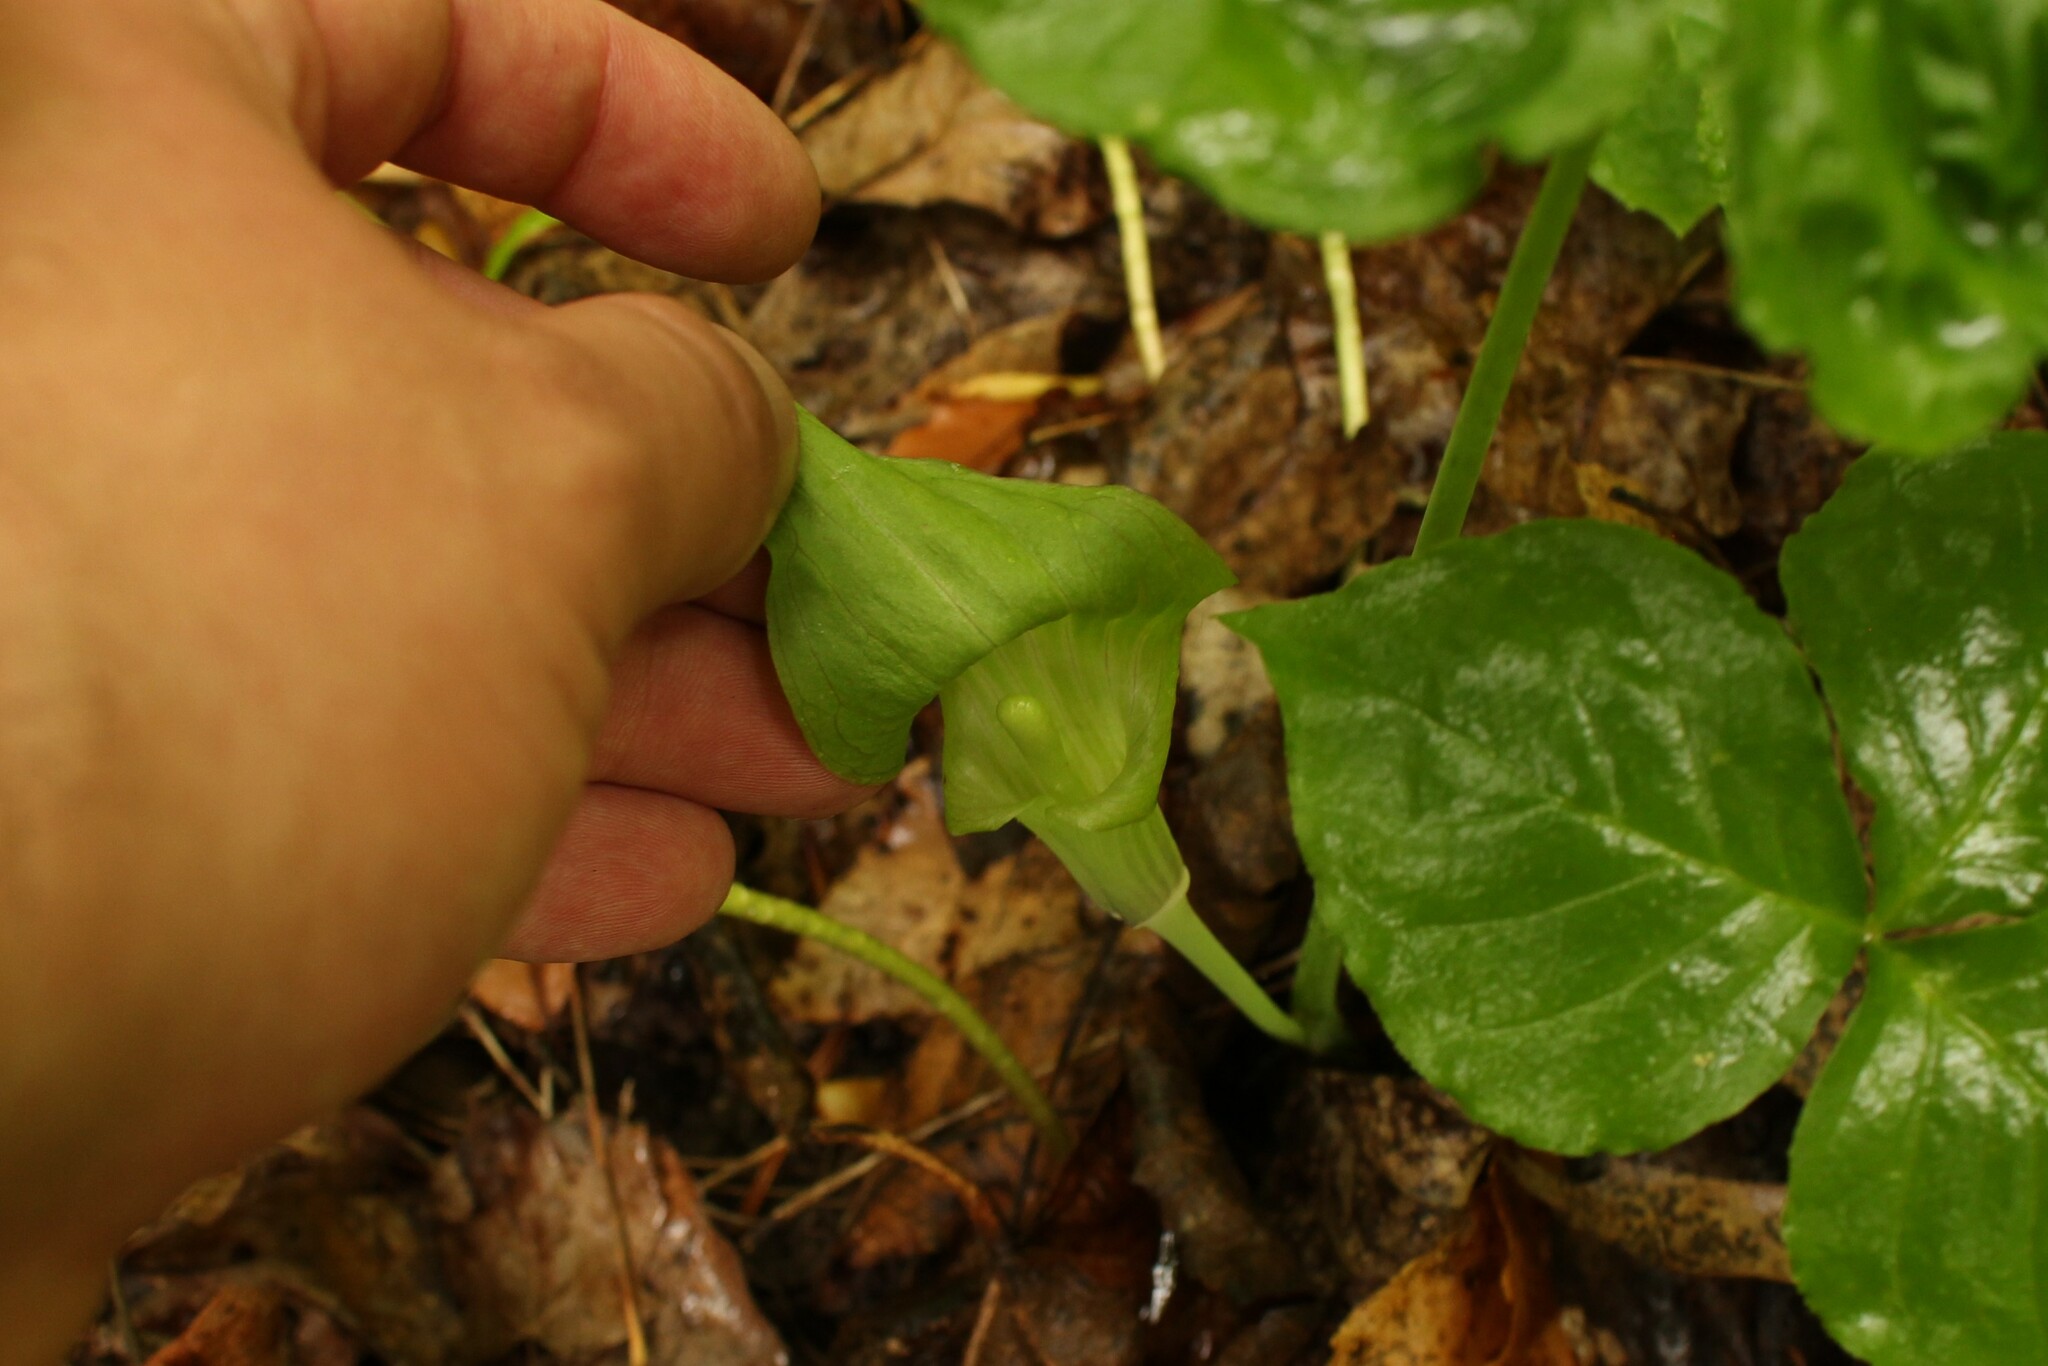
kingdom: Plantae
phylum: Tracheophyta
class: Liliopsida
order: Alismatales
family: Araceae
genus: Arisaema
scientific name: Arisaema triphyllum
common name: Jack-in-the-pulpit
